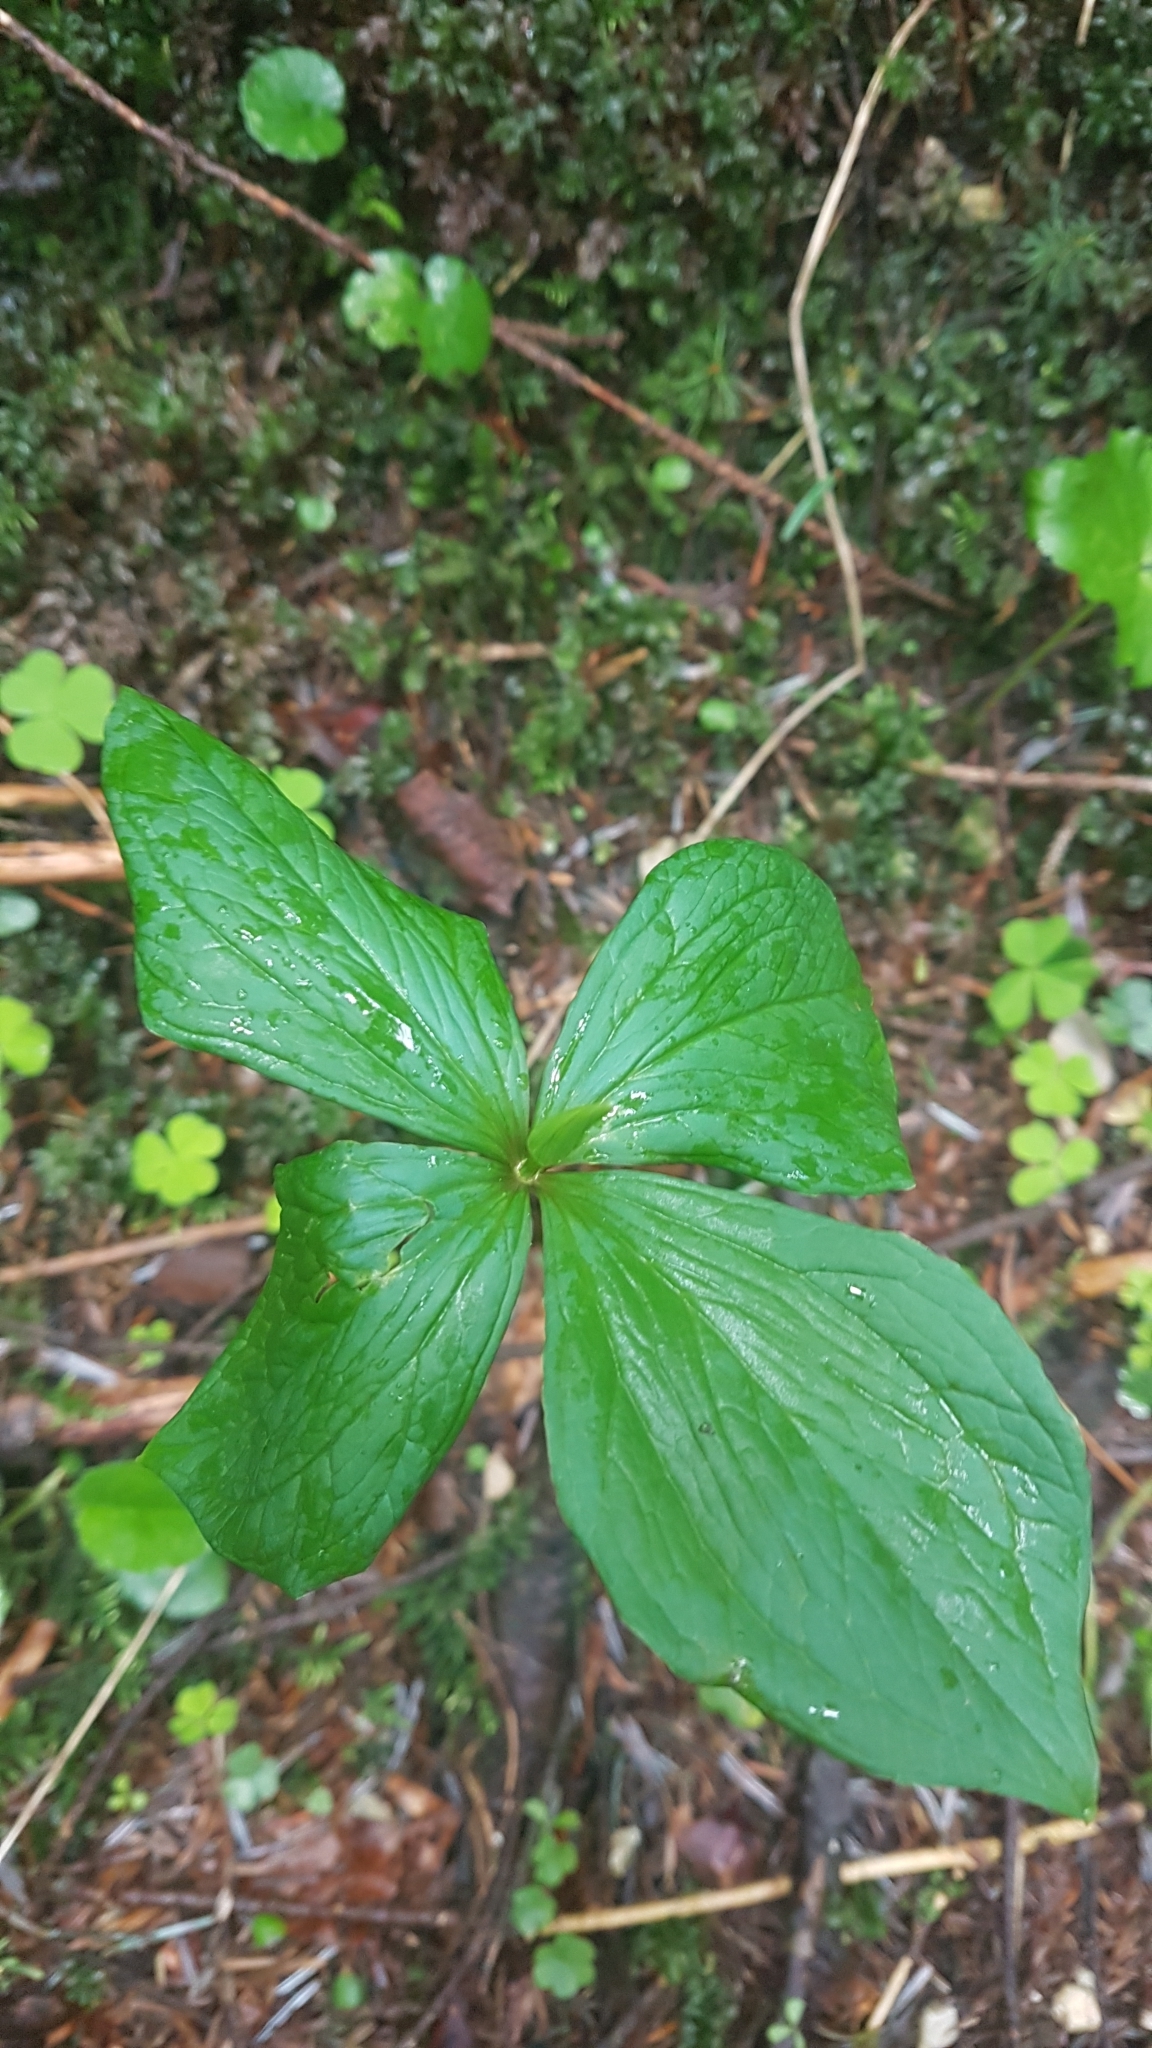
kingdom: Plantae
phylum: Tracheophyta
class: Liliopsida
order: Liliales
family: Melanthiaceae
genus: Paris
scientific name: Paris quadrifolia
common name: Herb-paris
